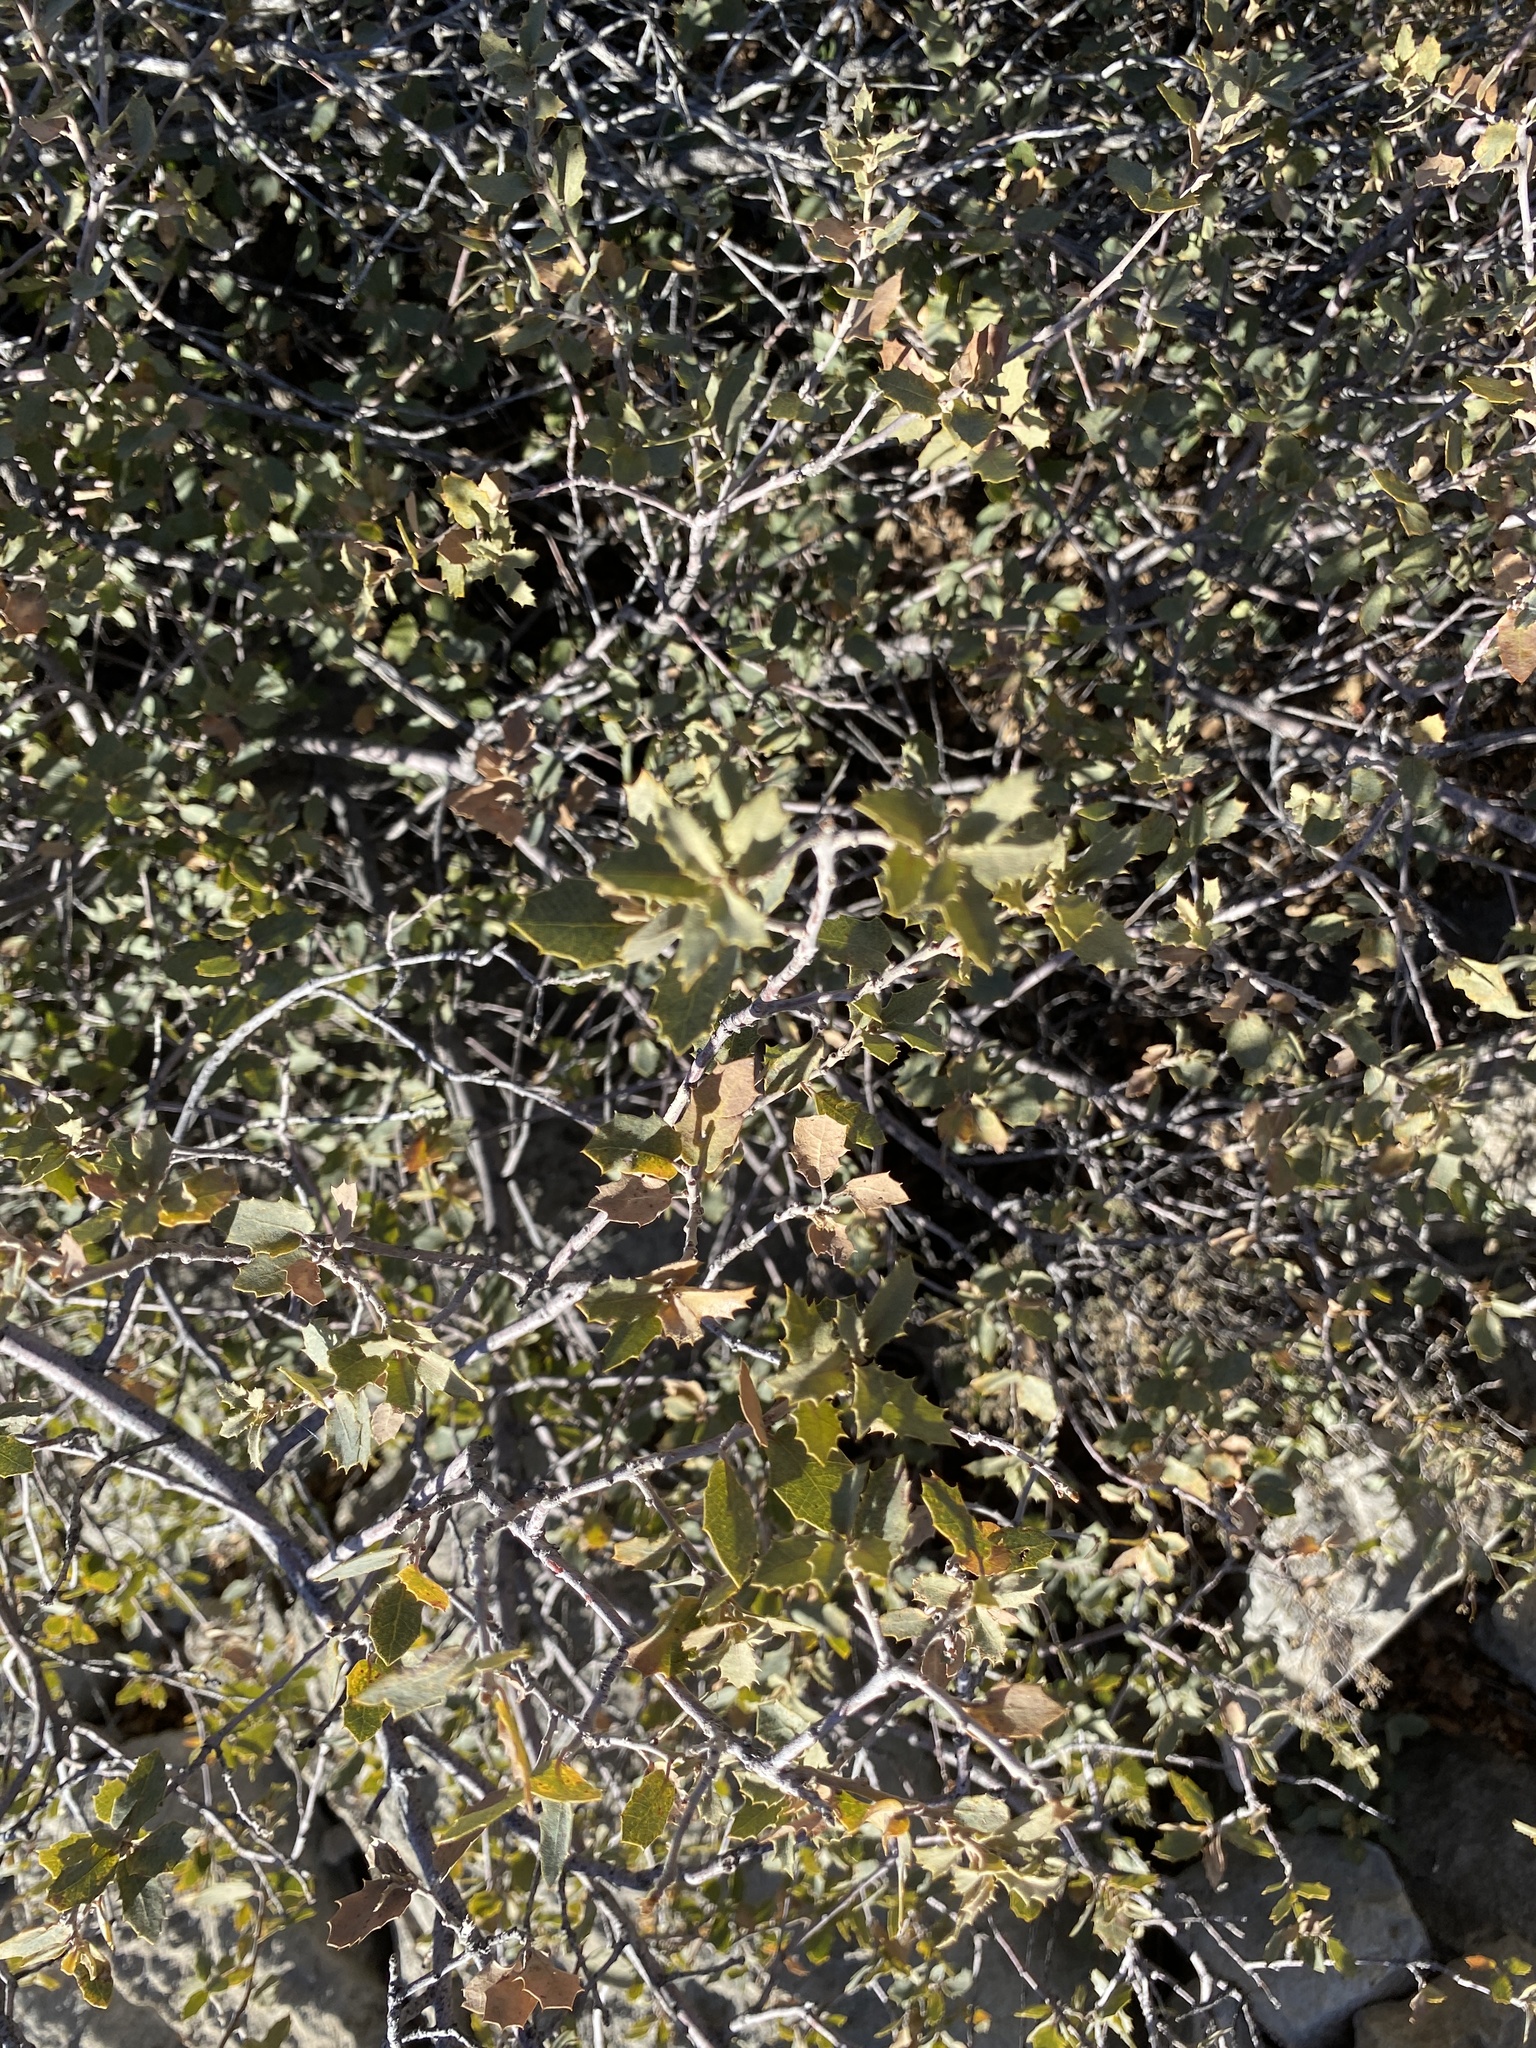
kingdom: Plantae
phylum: Tracheophyta
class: Magnoliopsida
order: Fagales
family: Fagaceae
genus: Quercus
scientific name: Quercus turbinella
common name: Sonoran scrub oak
